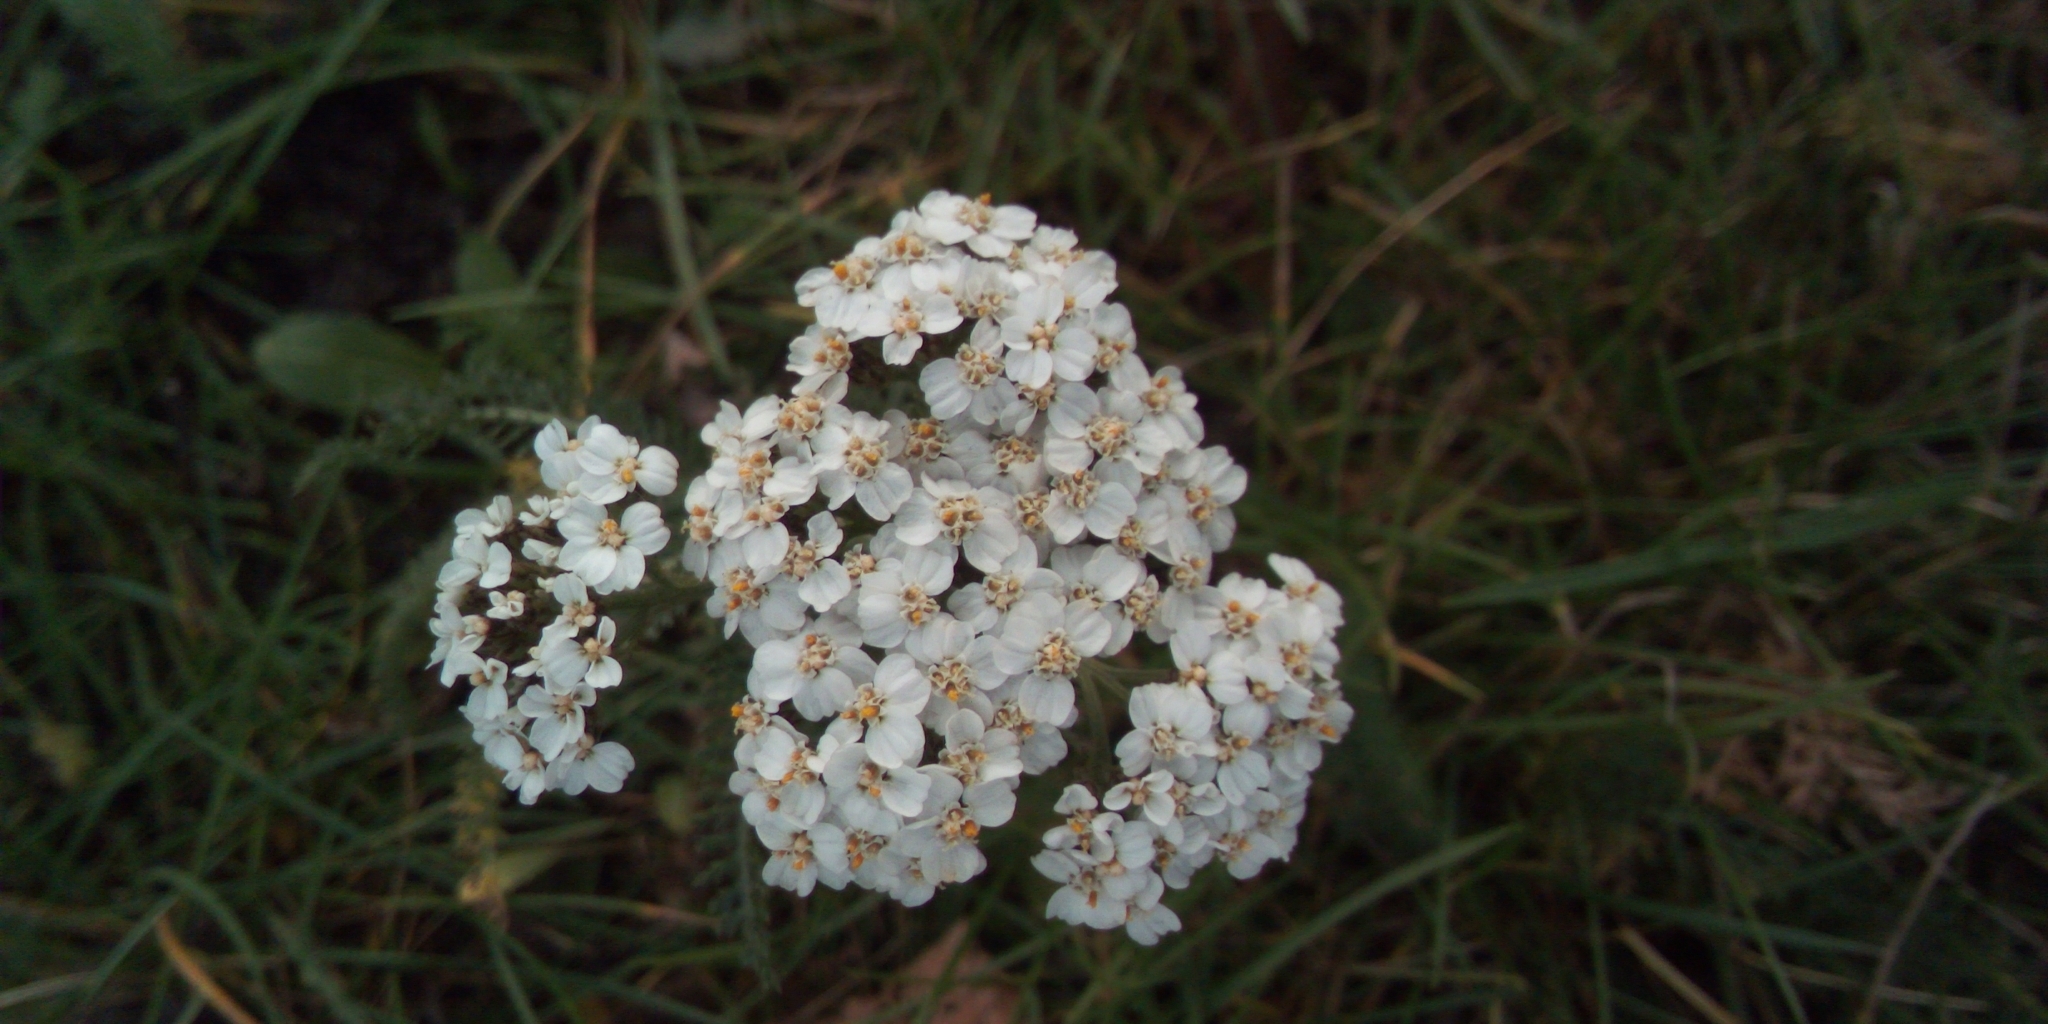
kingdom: Plantae
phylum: Tracheophyta
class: Magnoliopsida
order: Asterales
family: Asteraceae
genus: Achillea
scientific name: Achillea millefolium
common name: Yarrow
